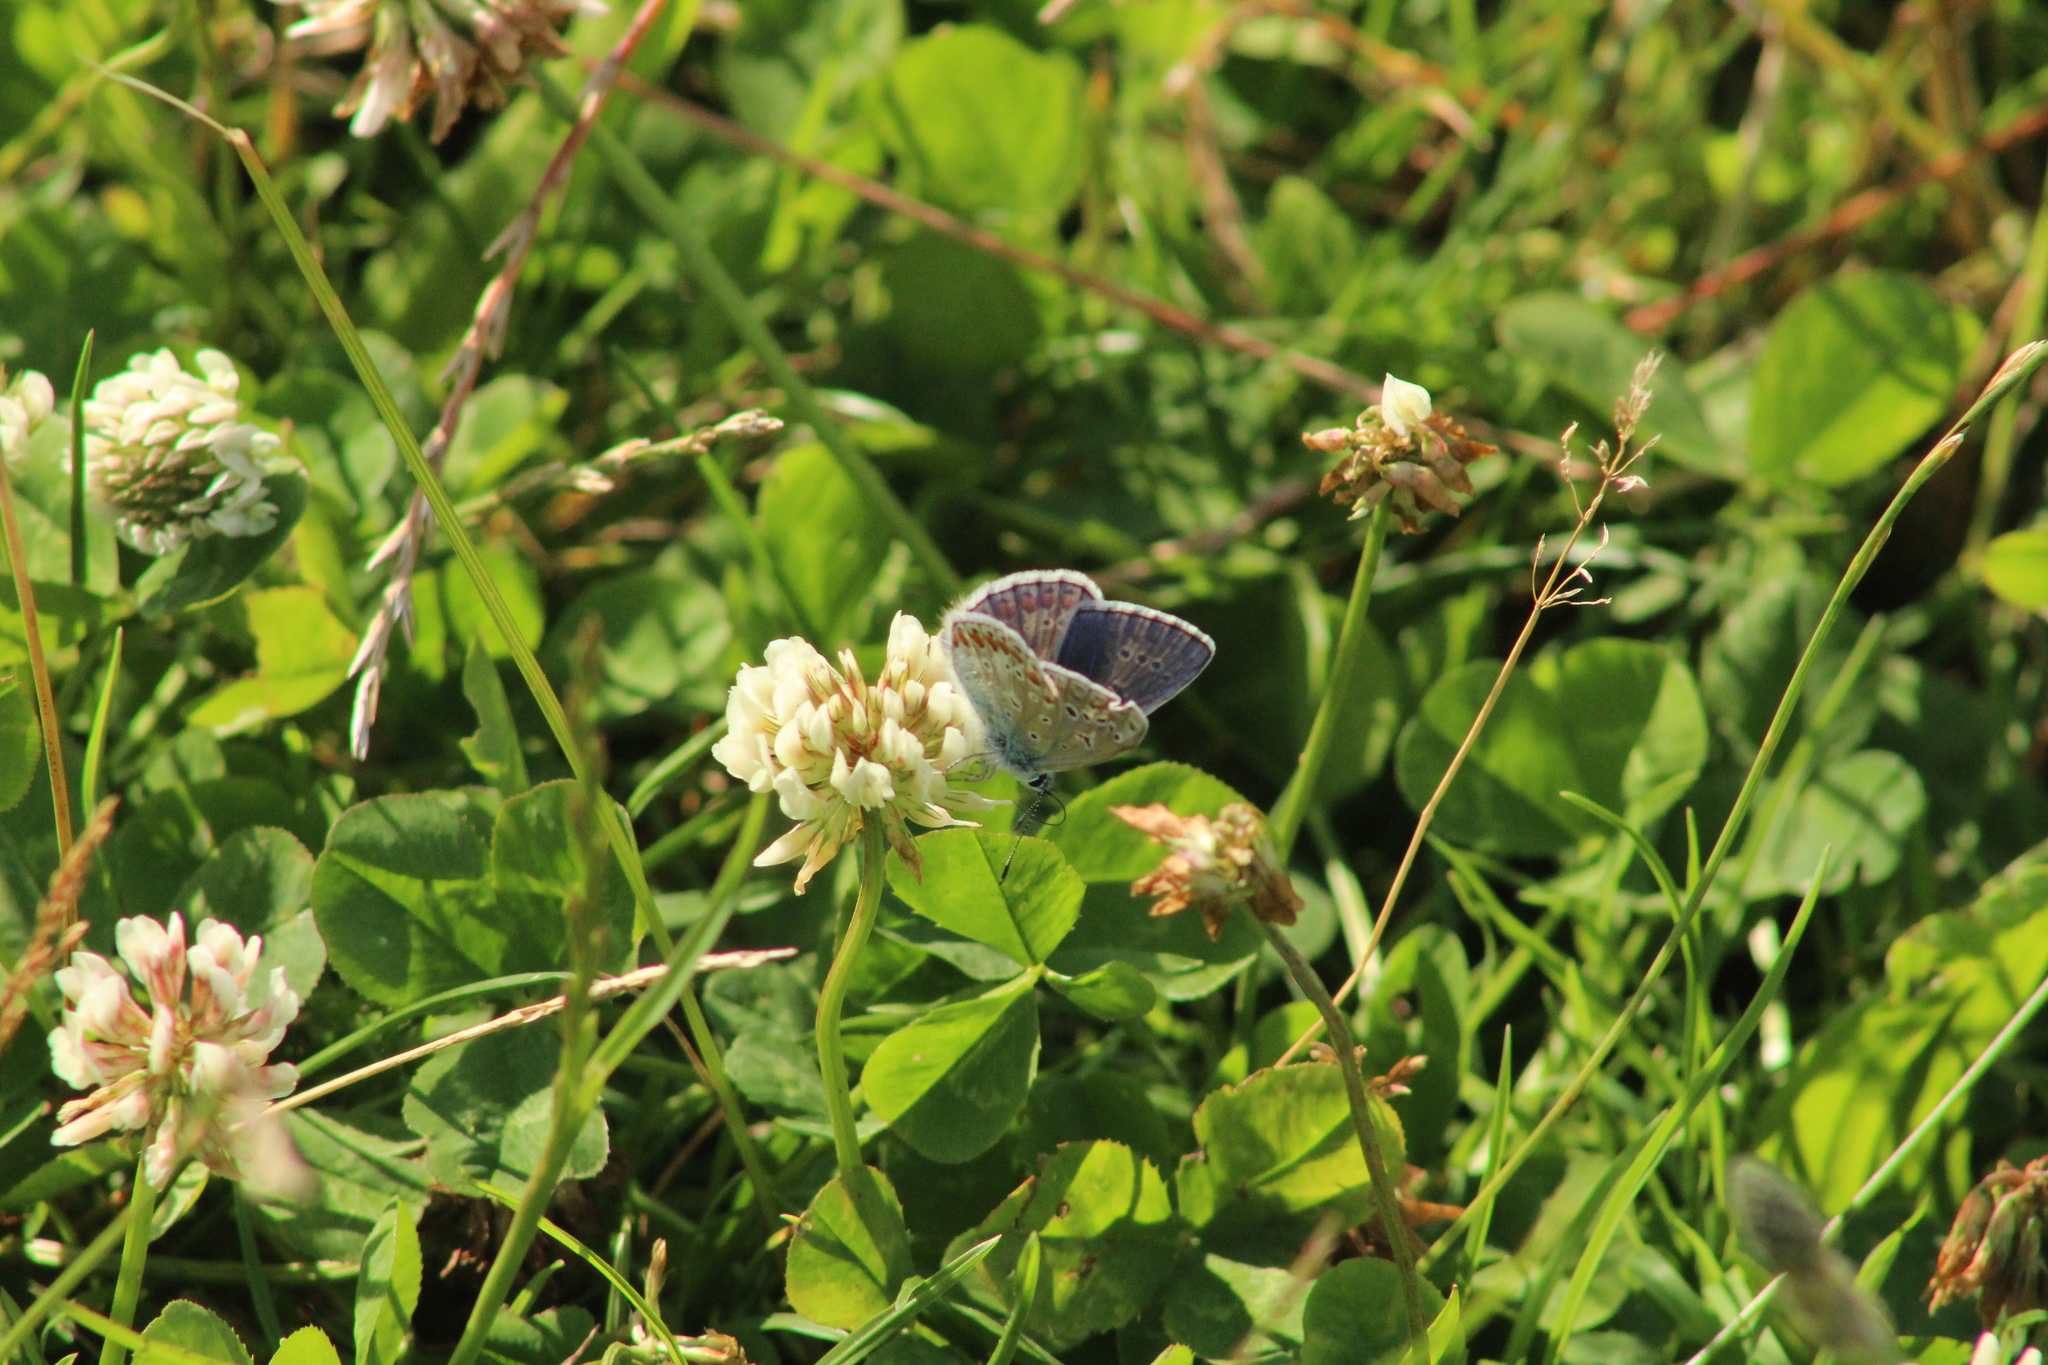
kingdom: Animalia
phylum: Arthropoda
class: Insecta
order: Lepidoptera
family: Lycaenidae
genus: Polyommatus
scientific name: Polyommatus icarus
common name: Common blue
